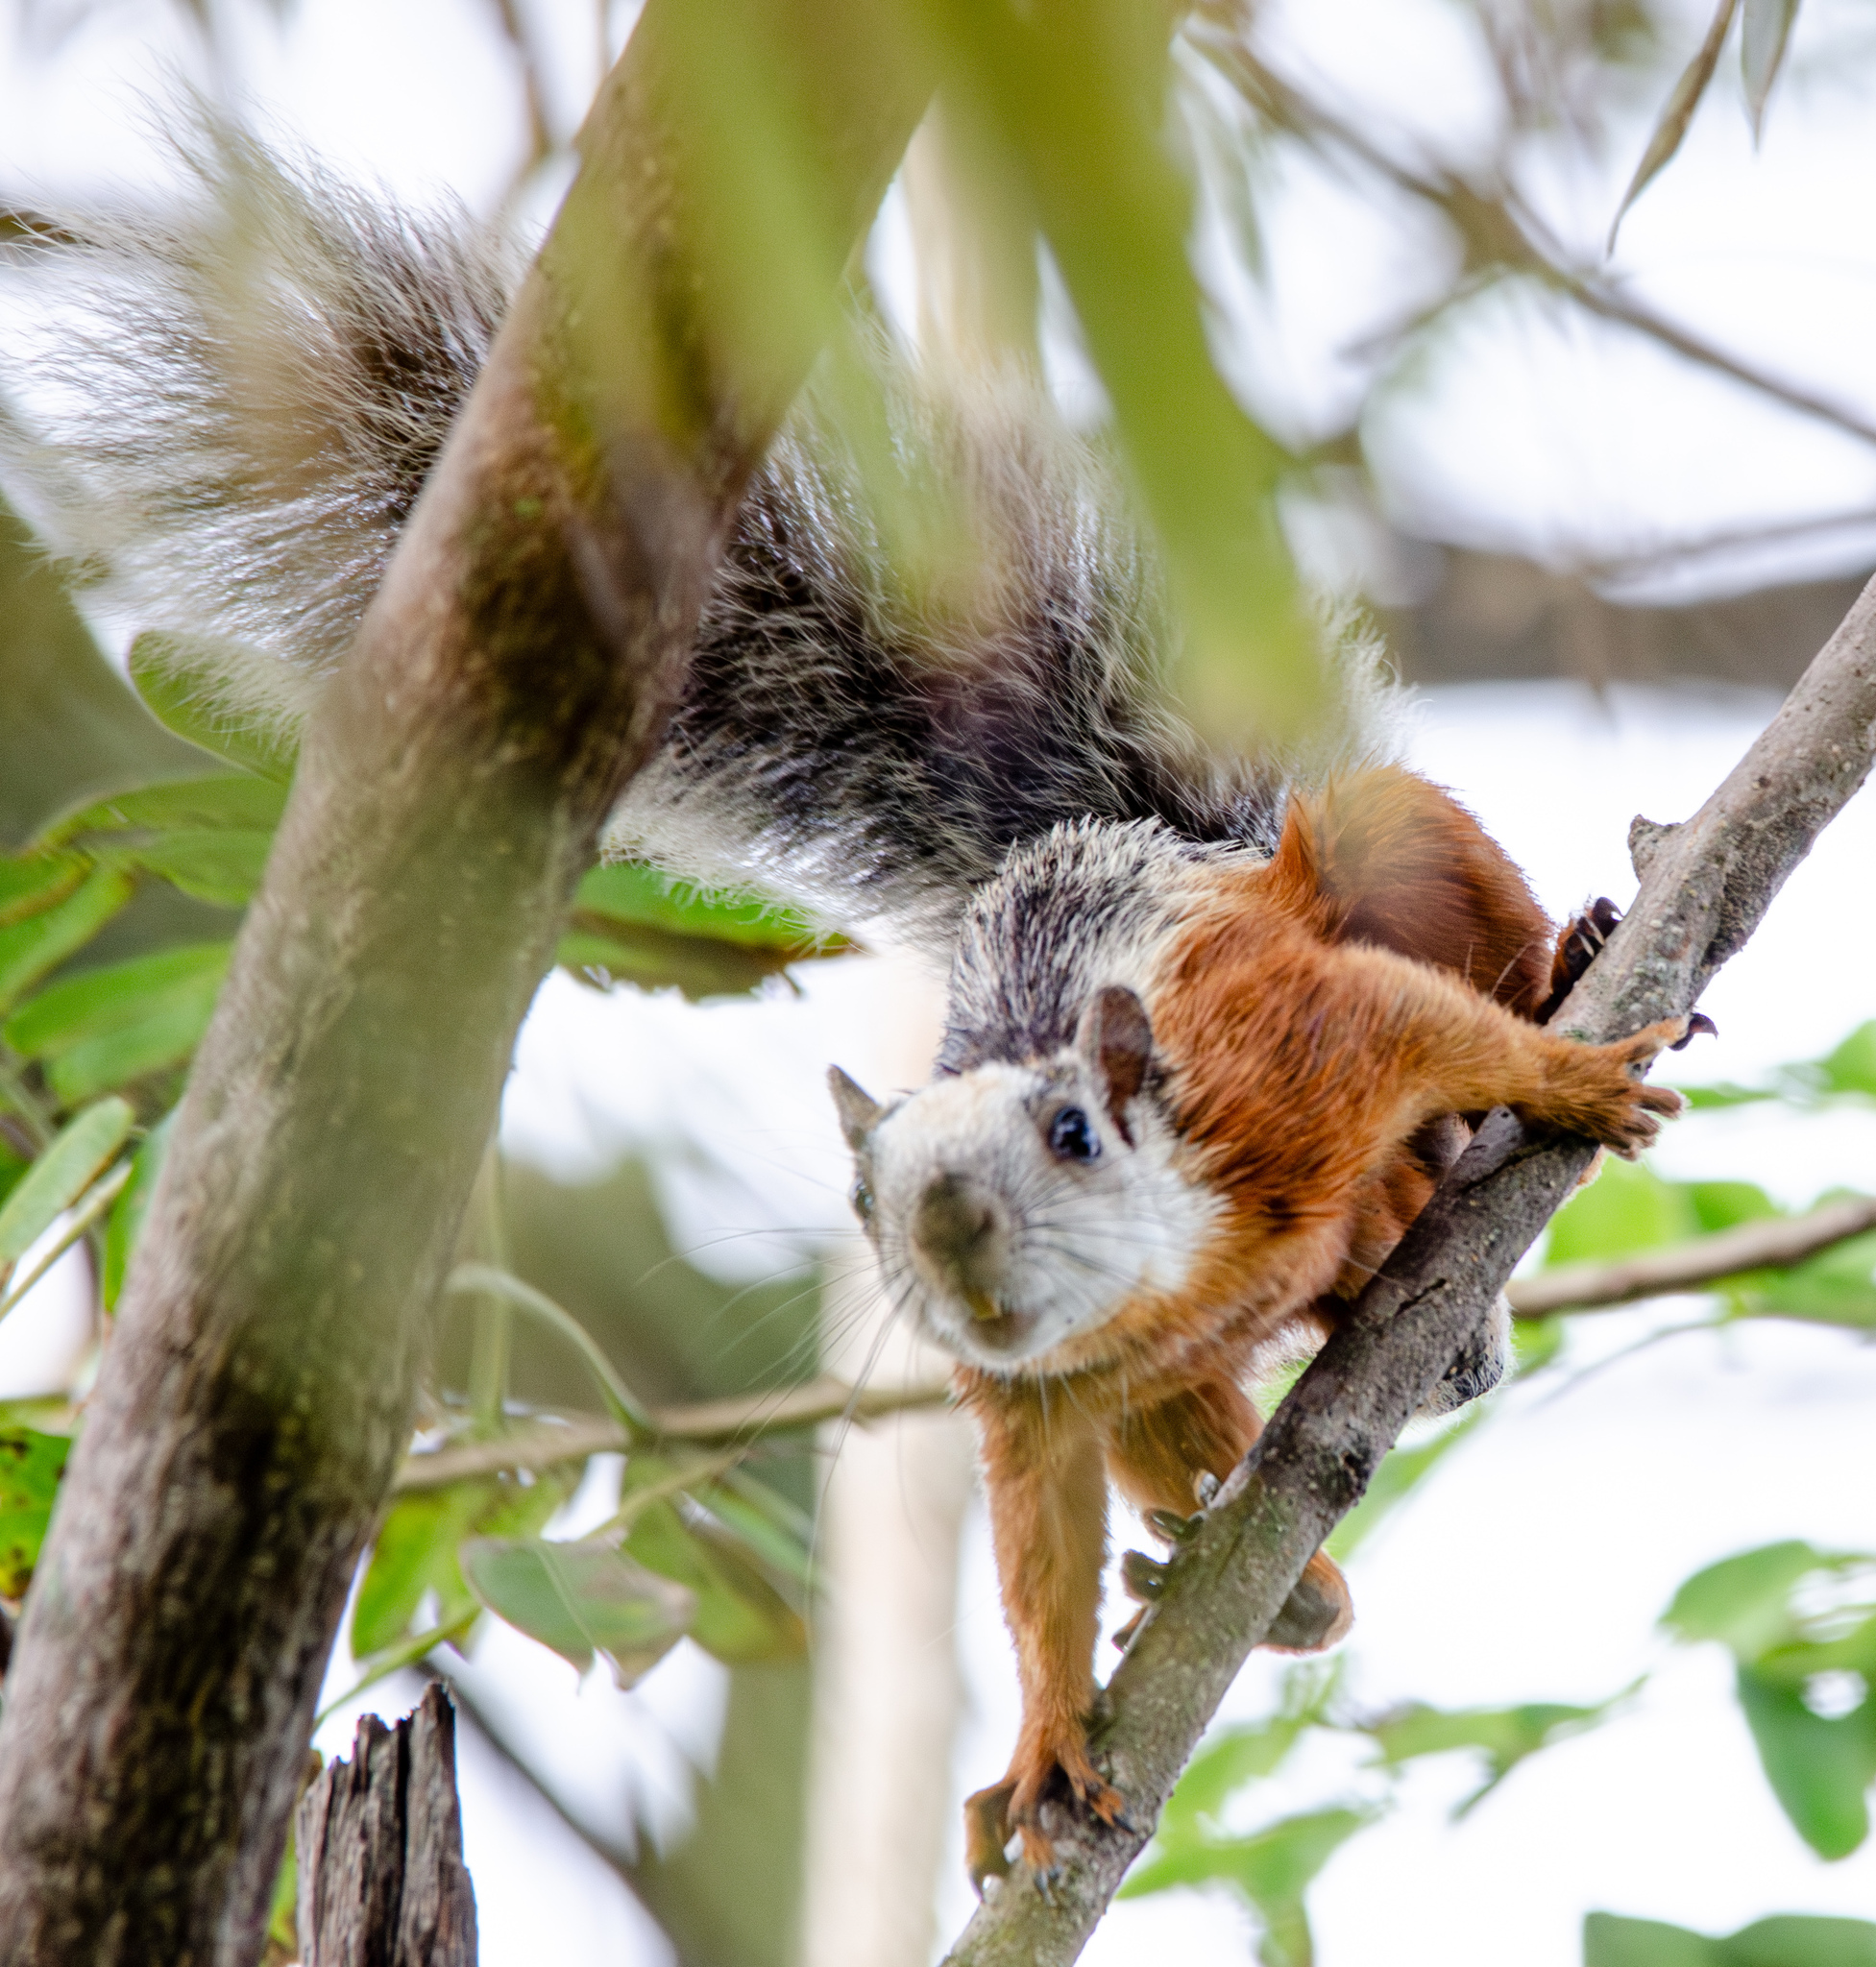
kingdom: Animalia
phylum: Chordata
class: Mammalia
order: Rodentia
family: Sciuridae
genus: Sciurus
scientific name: Sciurus variegatoides
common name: Variegated squirrel
